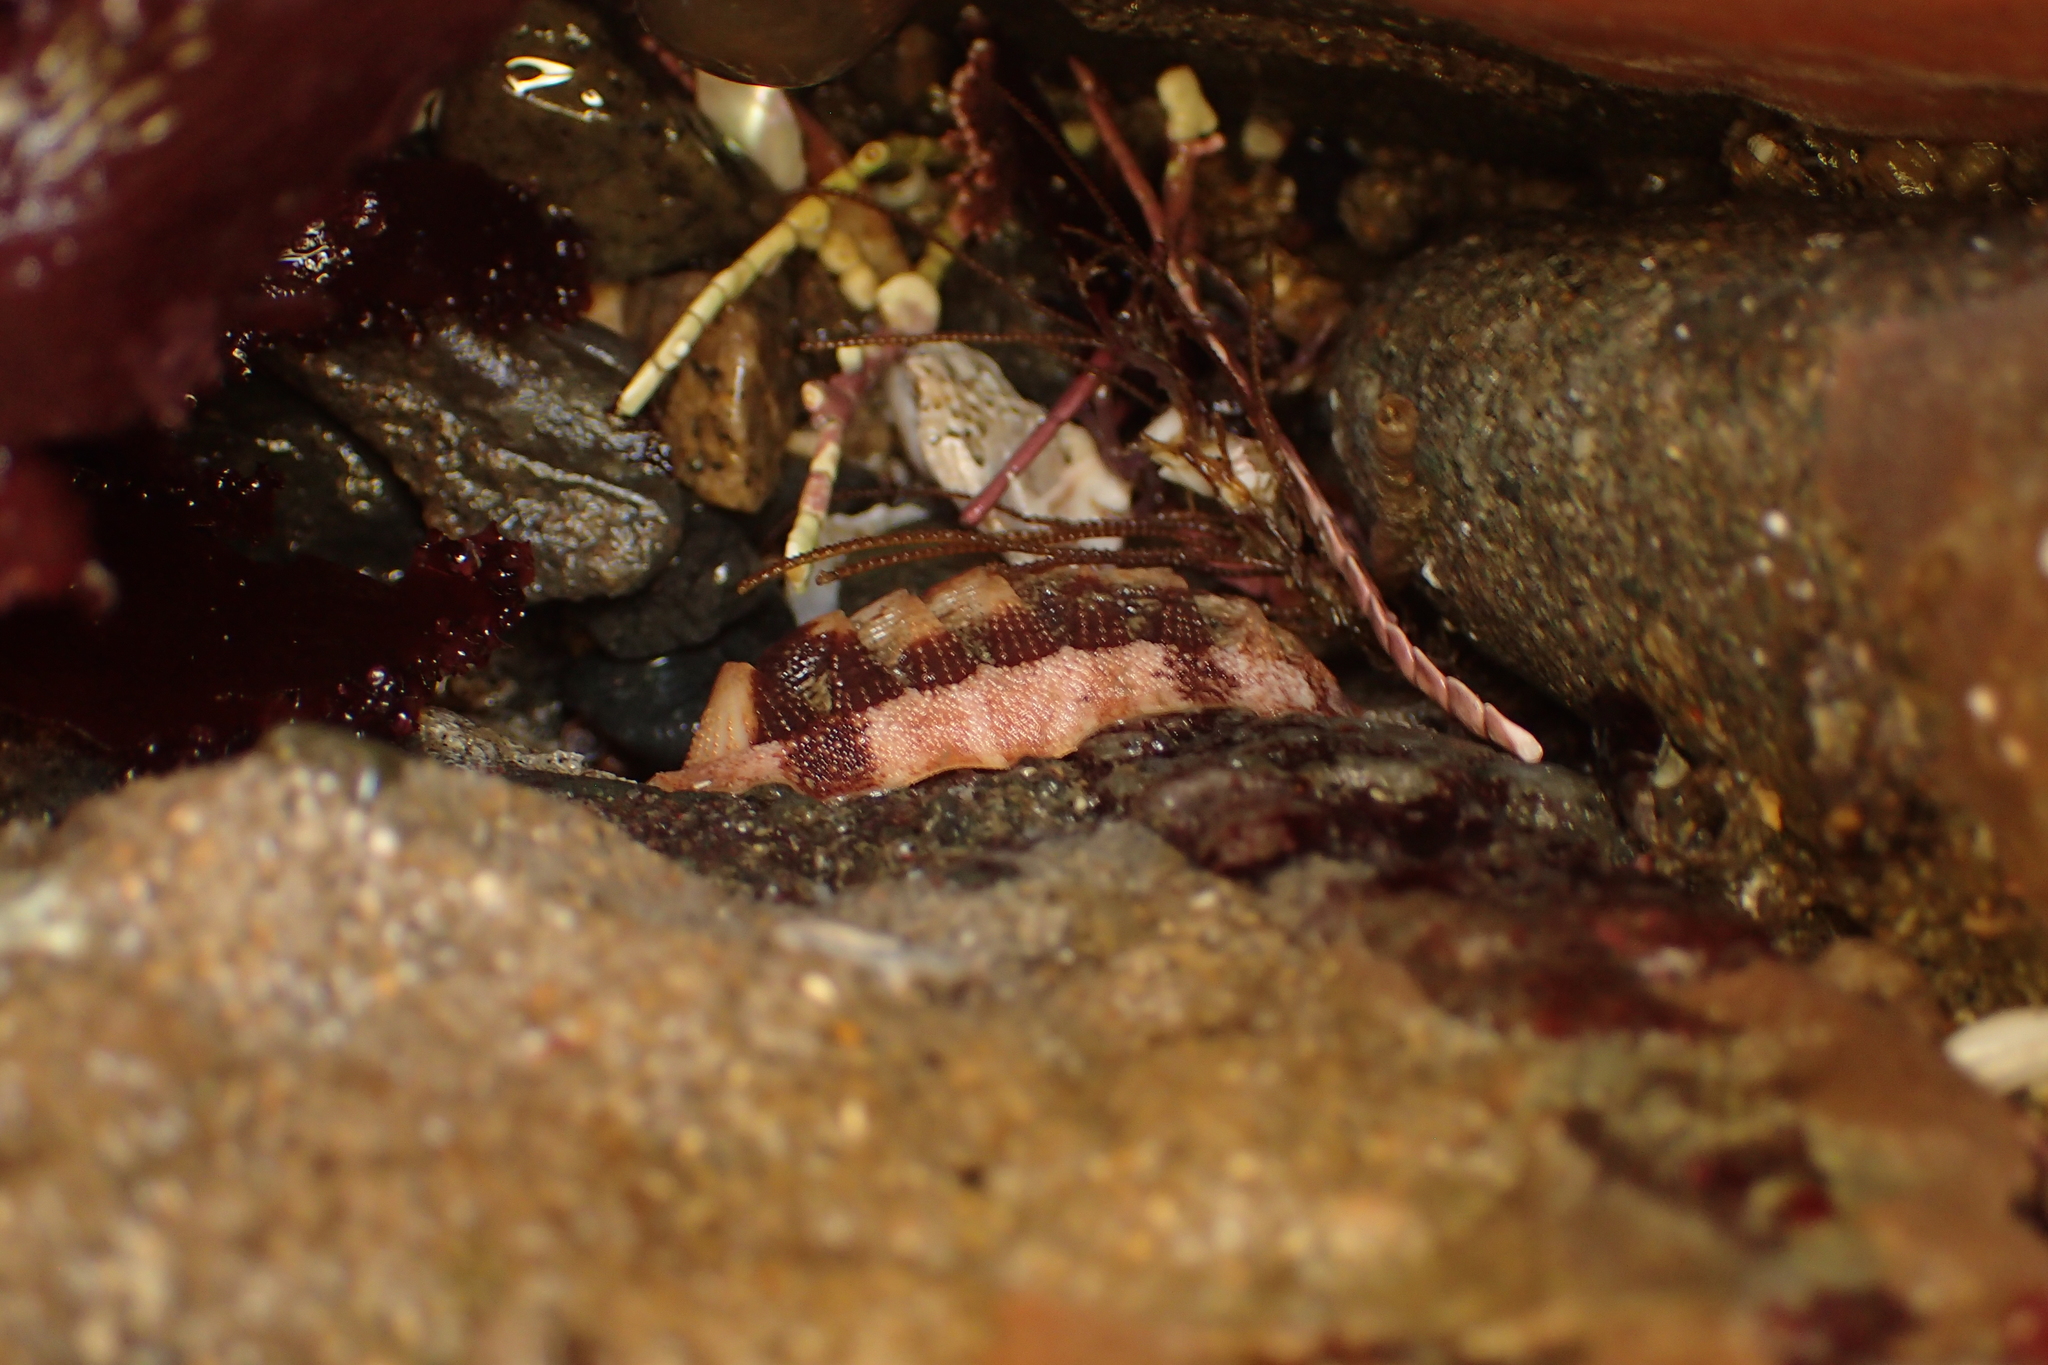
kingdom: Animalia
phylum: Mollusca
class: Polyplacophora
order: Chitonida
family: Ischnochitonidae
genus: Lepidozona
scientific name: Lepidozona mertensii
